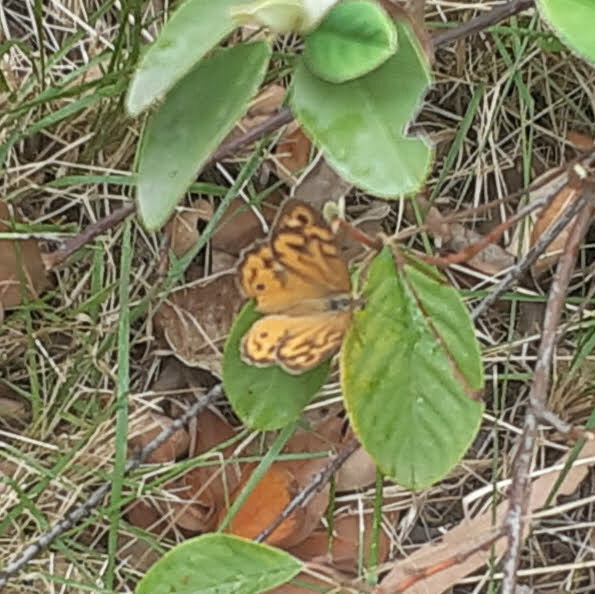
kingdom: Animalia
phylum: Arthropoda
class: Insecta
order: Lepidoptera
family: Nymphalidae
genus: Heteronympha
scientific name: Heteronympha merope
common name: Common brown
